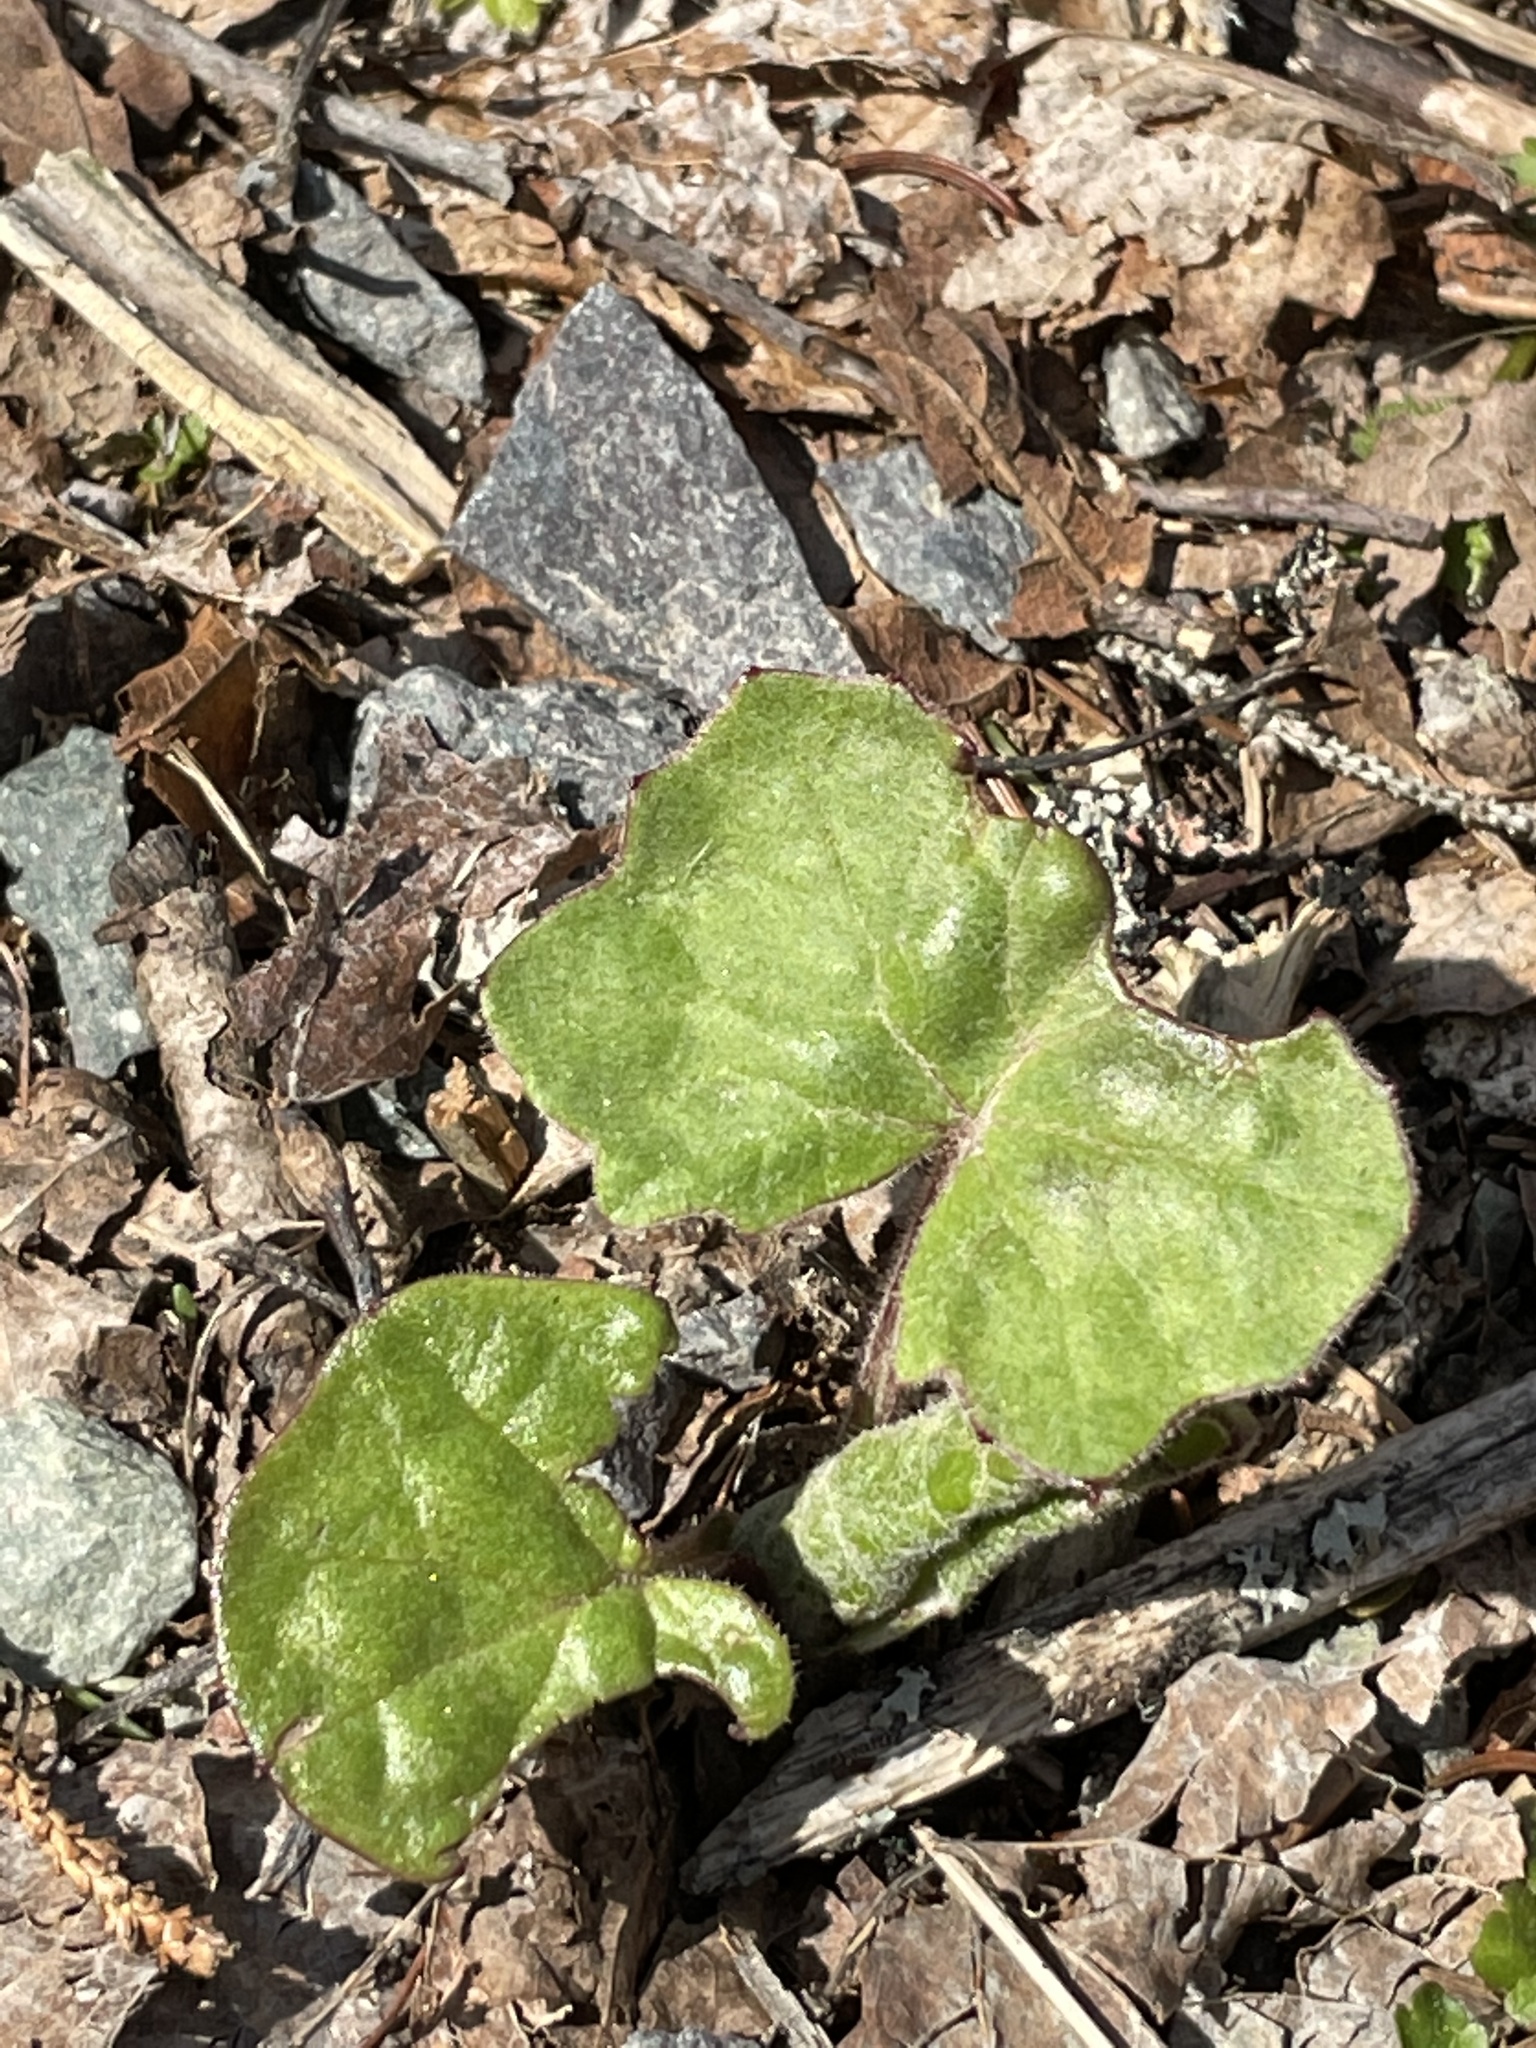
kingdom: Plantae
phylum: Tracheophyta
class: Magnoliopsida
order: Asterales
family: Asteraceae
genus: Tussilago
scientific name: Tussilago farfara
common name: Coltsfoot
